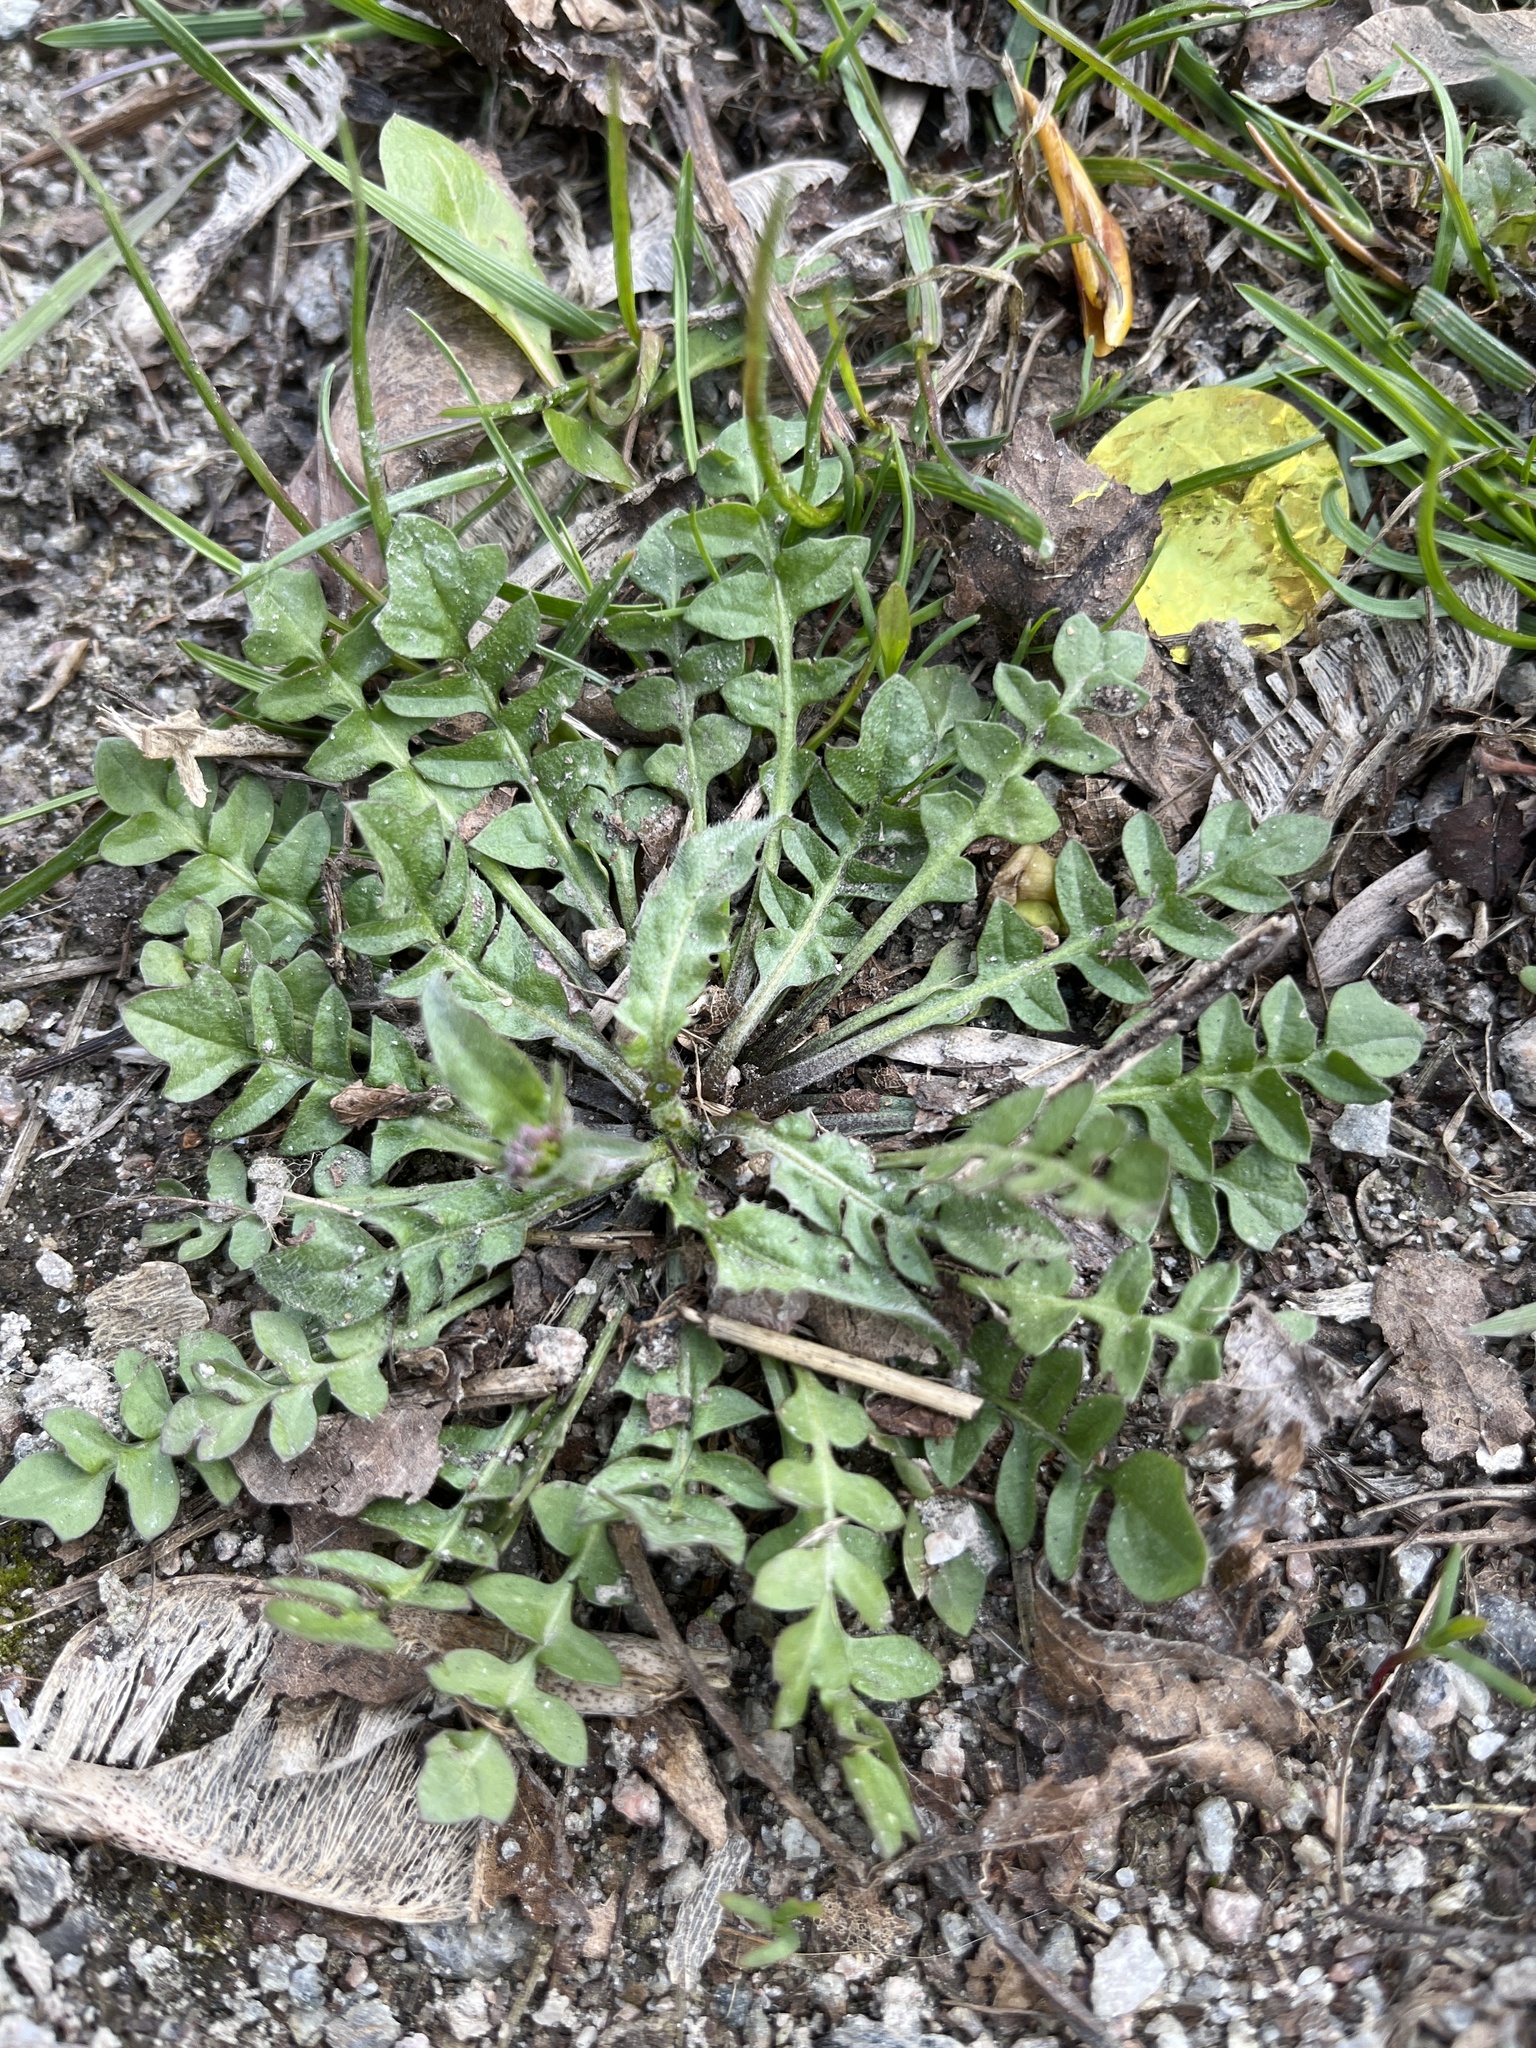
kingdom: Plantae
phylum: Tracheophyta
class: Magnoliopsida
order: Brassicales
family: Brassicaceae
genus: Capsella
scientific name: Capsella bursa-pastoris
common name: Shepherd's purse
